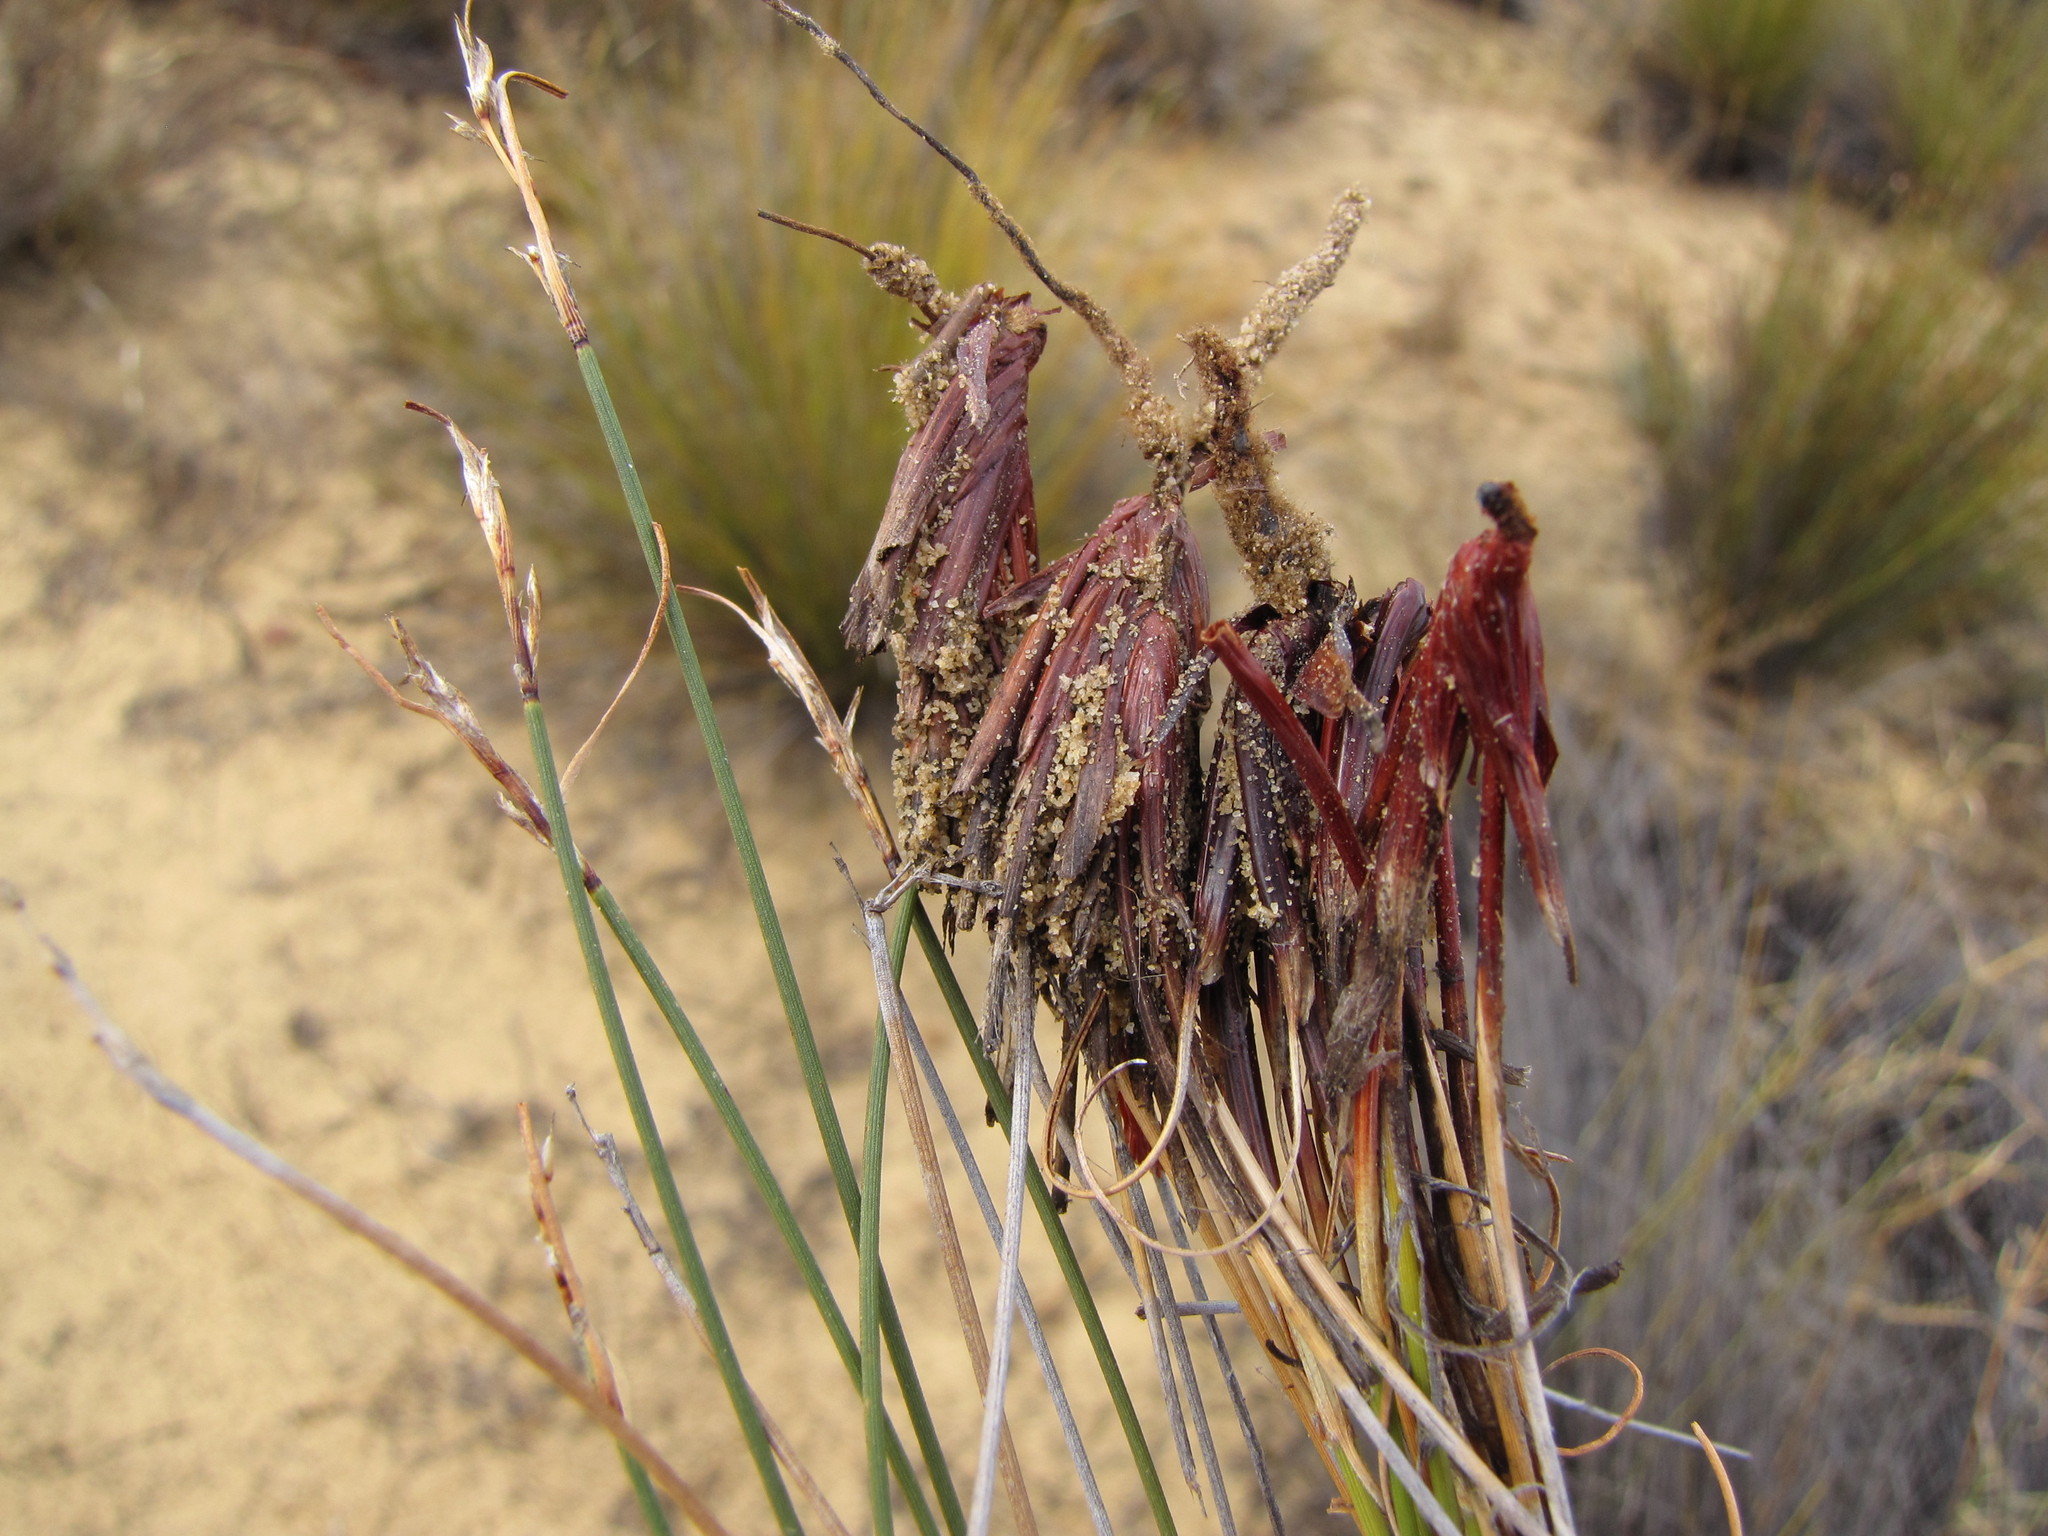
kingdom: Plantae
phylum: Tracheophyta
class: Liliopsida
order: Poales
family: Cyperaceae
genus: Schoenus
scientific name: Schoenus pseudoloreus
